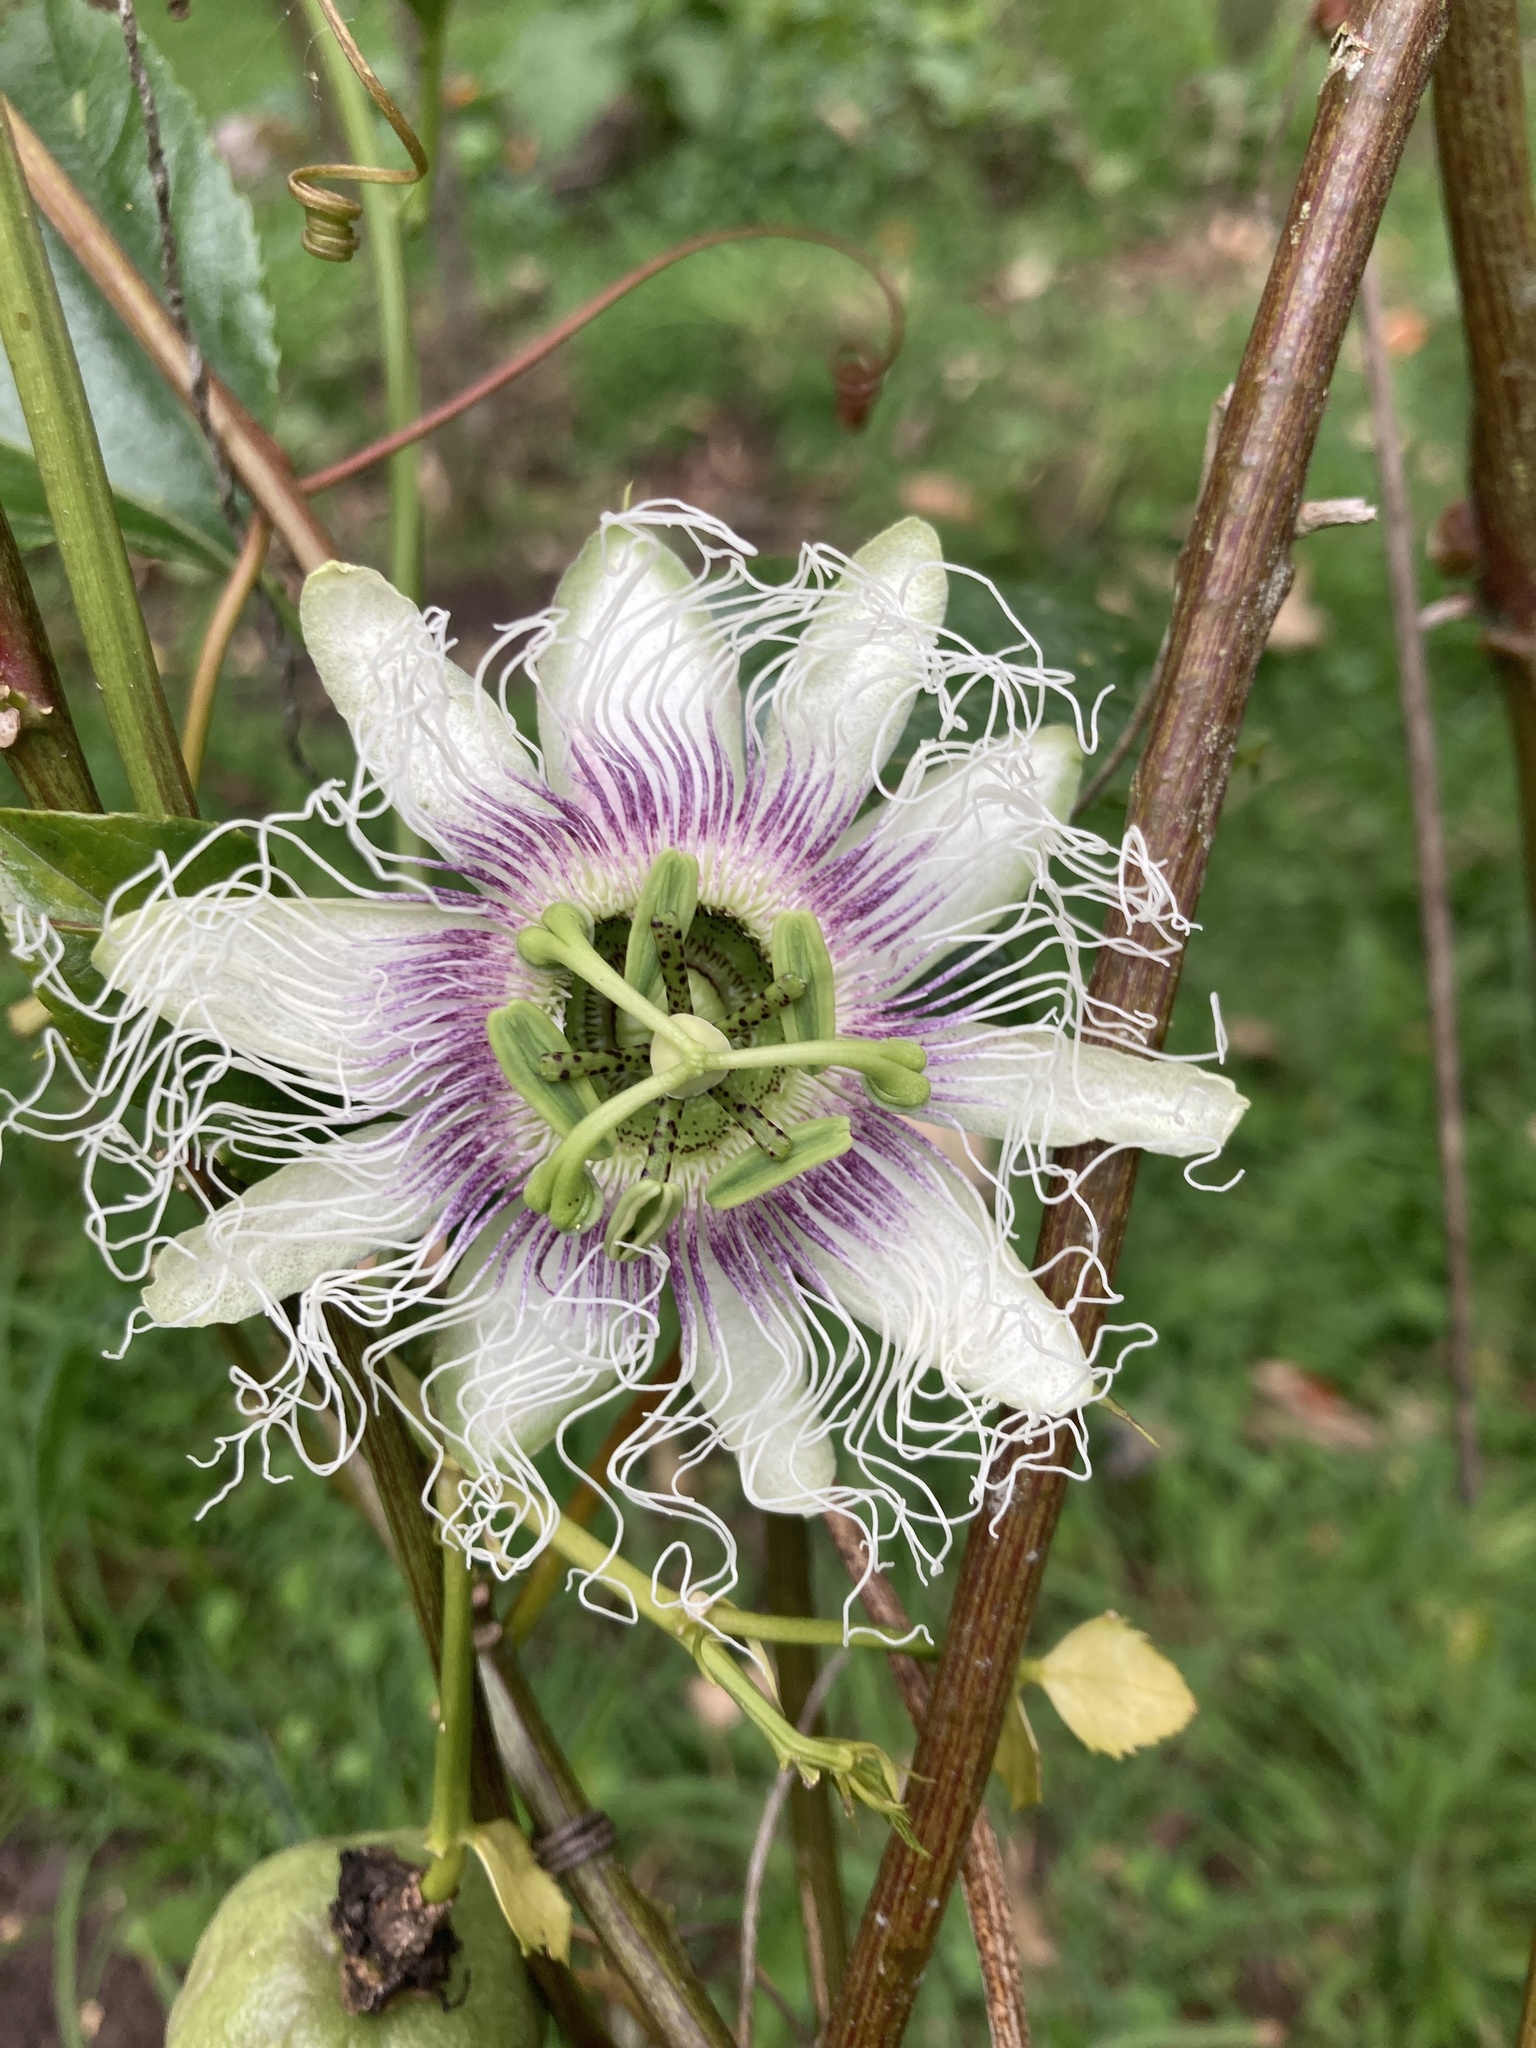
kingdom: Plantae
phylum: Tracheophyta
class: Magnoliopsida
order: Malpighiales
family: Passifloraceae
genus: Passiflora
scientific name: Passiflora edulis
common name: Purple granadilla
